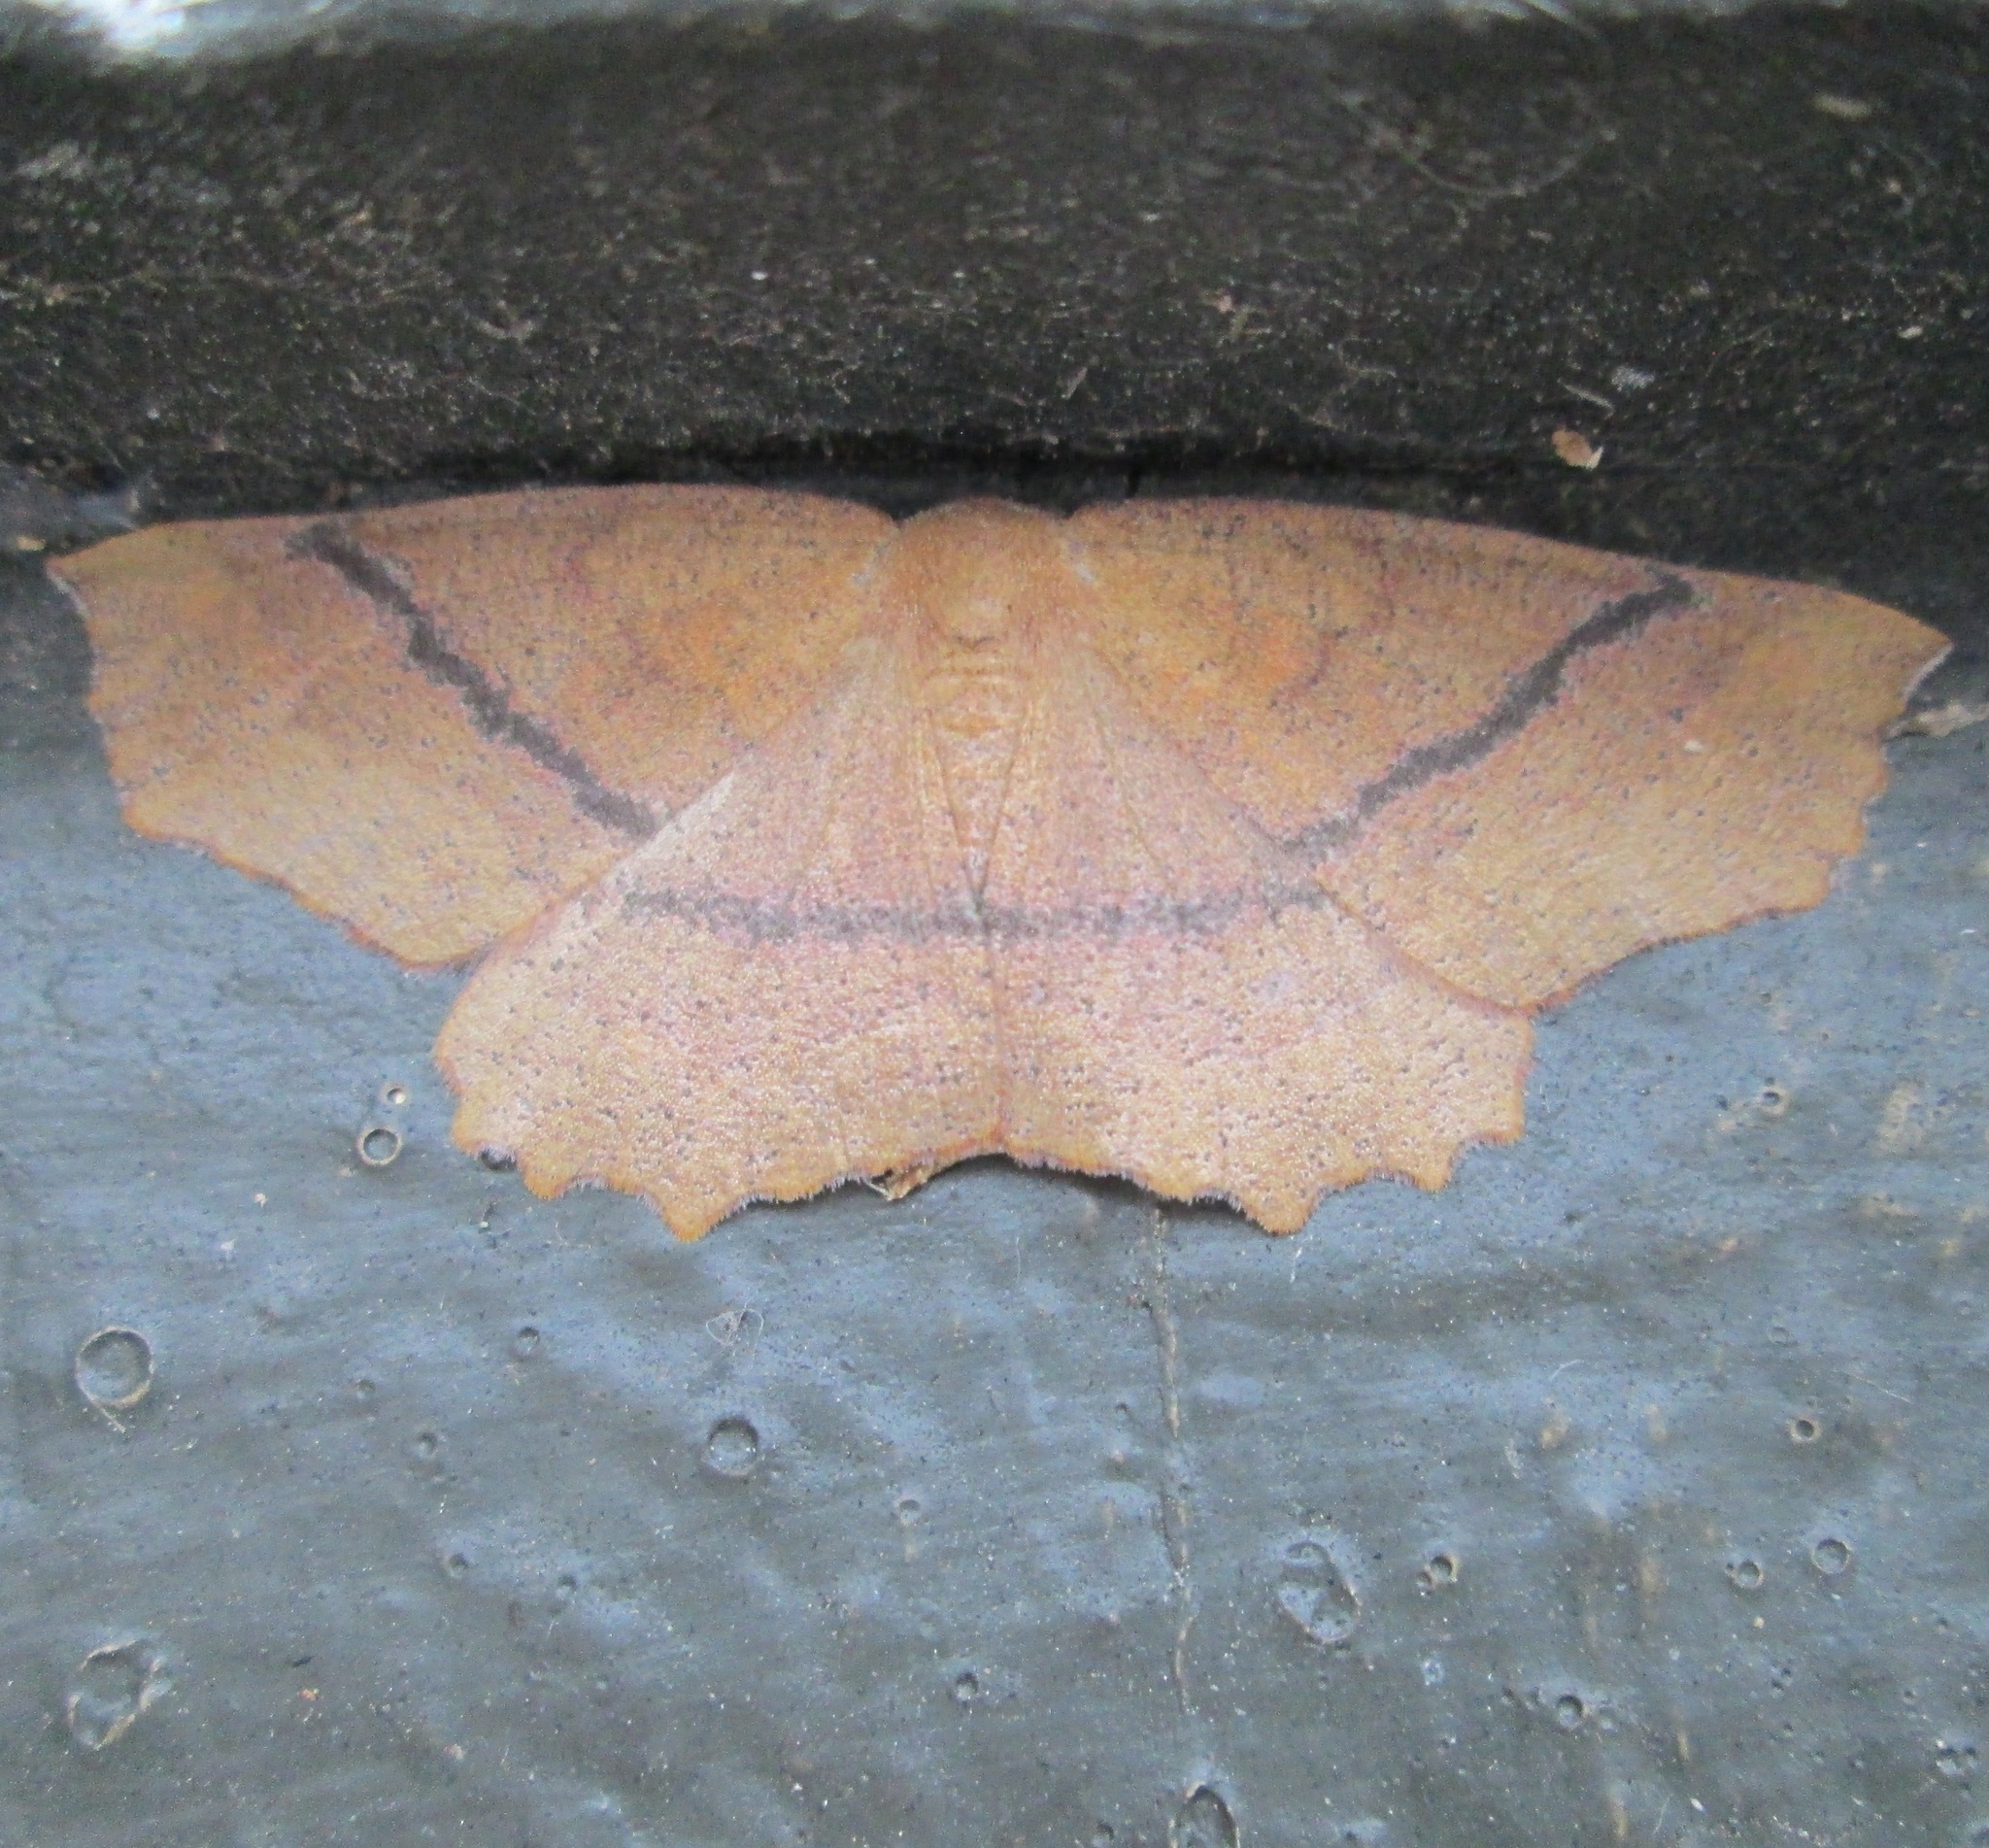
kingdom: Animalia
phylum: Arthropoda
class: Insecta
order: Lepidoptera
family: Geometridae
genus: Xyridacma
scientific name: Xyridacma ustaria
